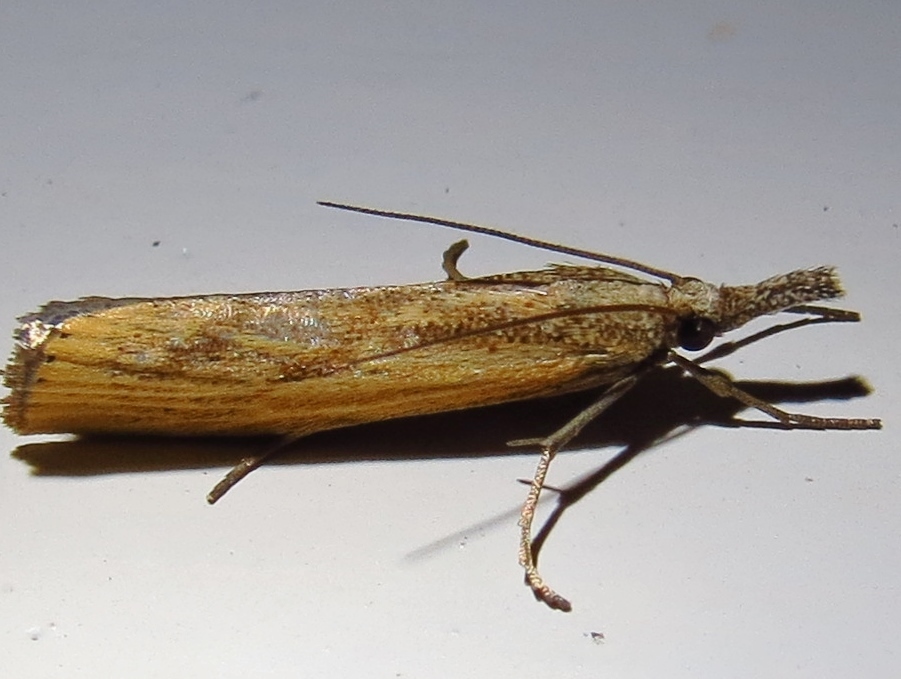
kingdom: Animalia
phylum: Arthropoda
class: Insecta
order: Lepidoptera
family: Crambidae
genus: Agriphila
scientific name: Agriphila inquinatella
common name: Barred grass-veneer
